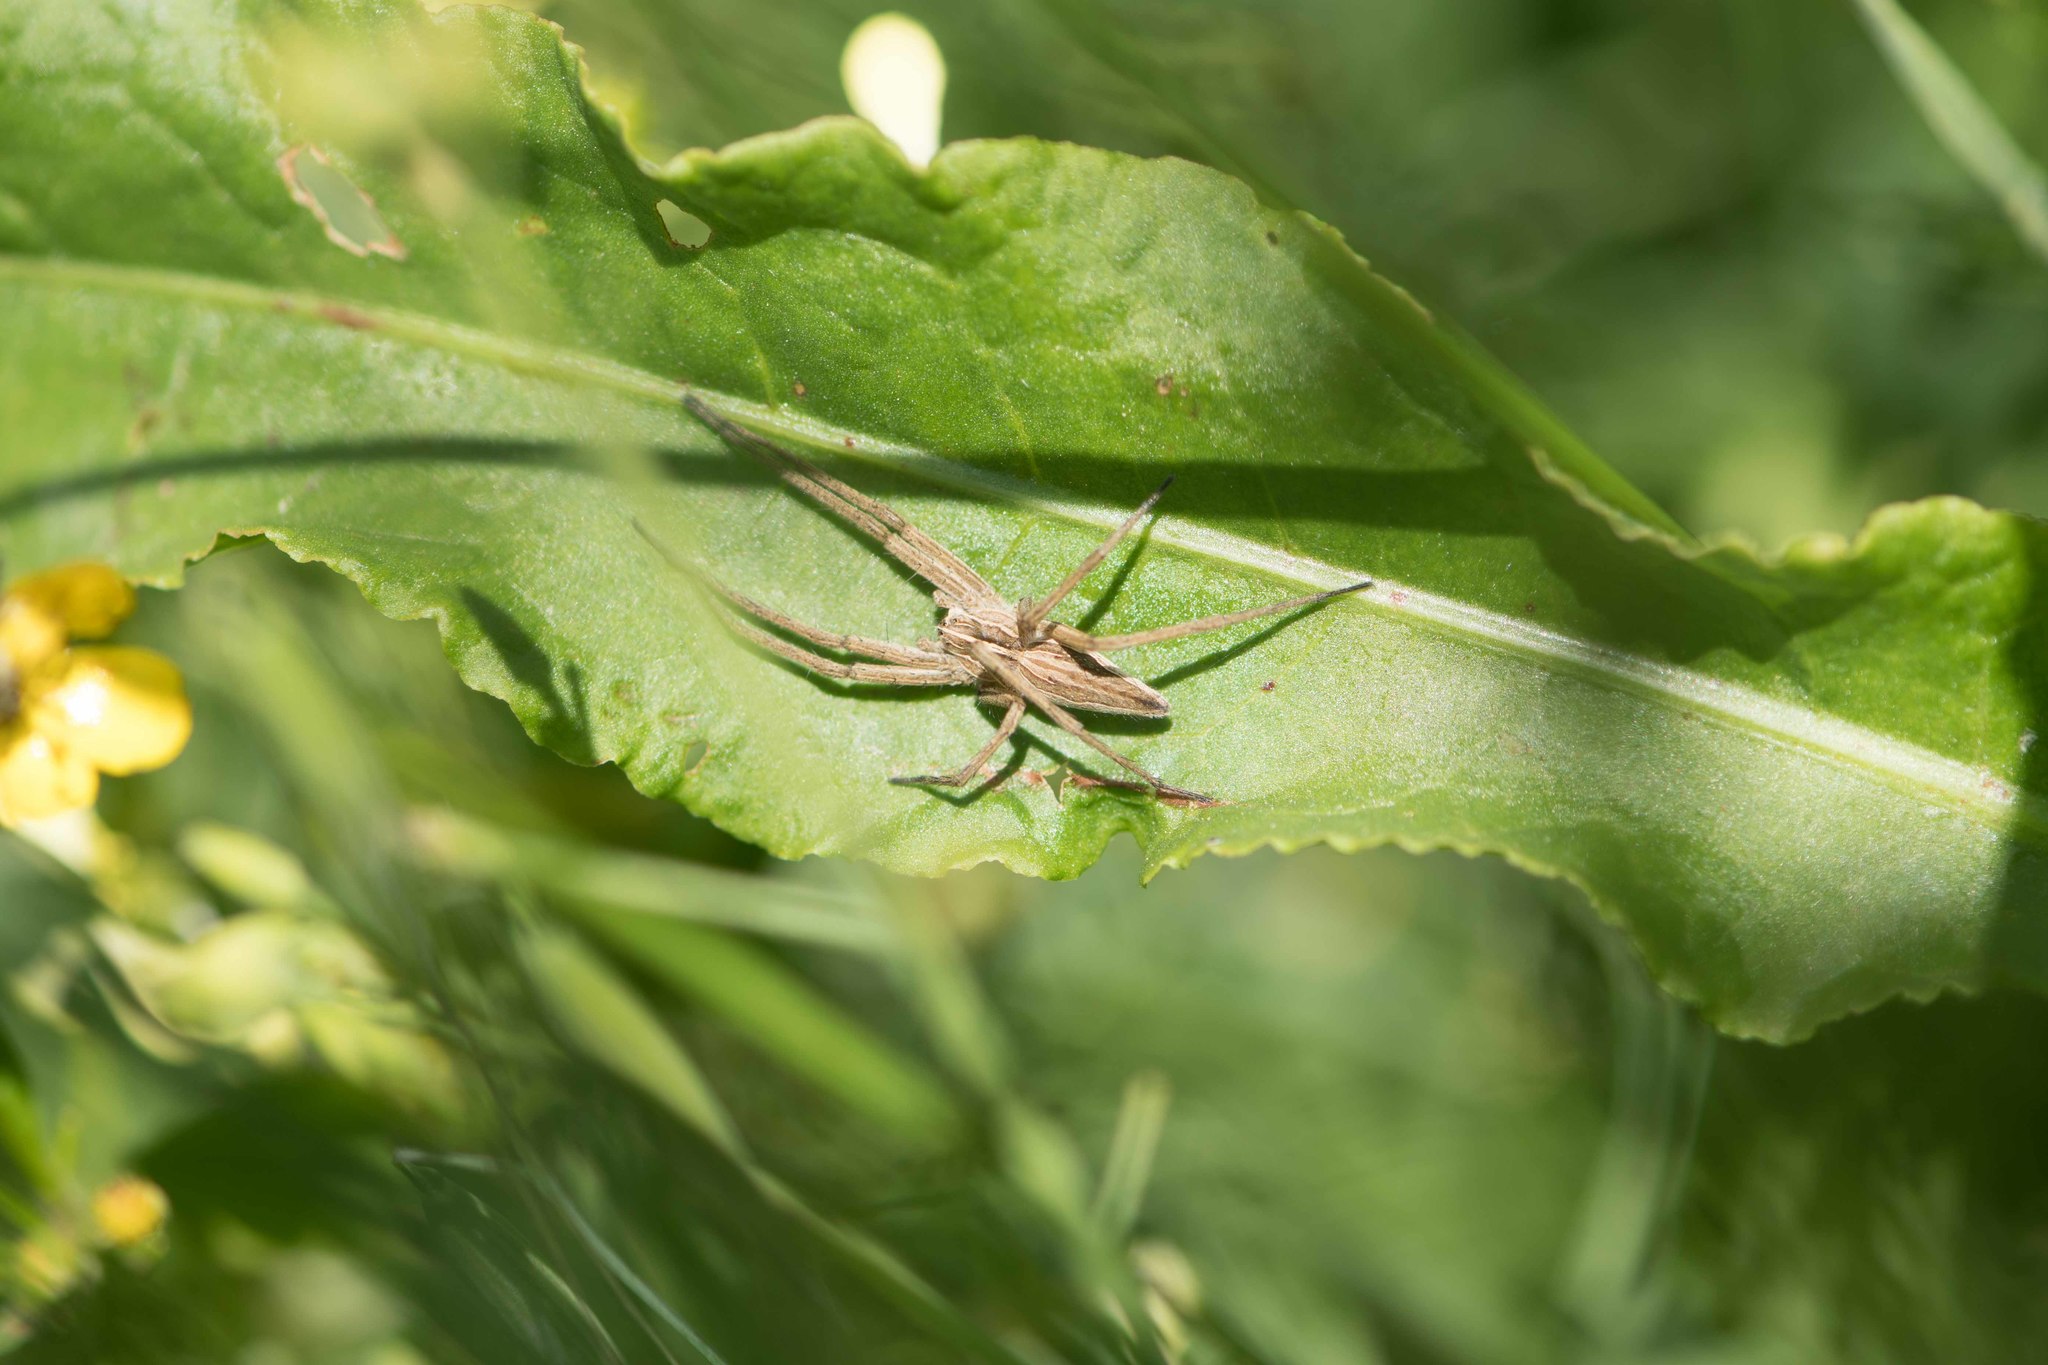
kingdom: Animalia
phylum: Arthropoda
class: Arachnida
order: Araneae
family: Pisauridae
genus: Pisaura
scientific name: Pisaura mirabilis
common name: Tent spider
